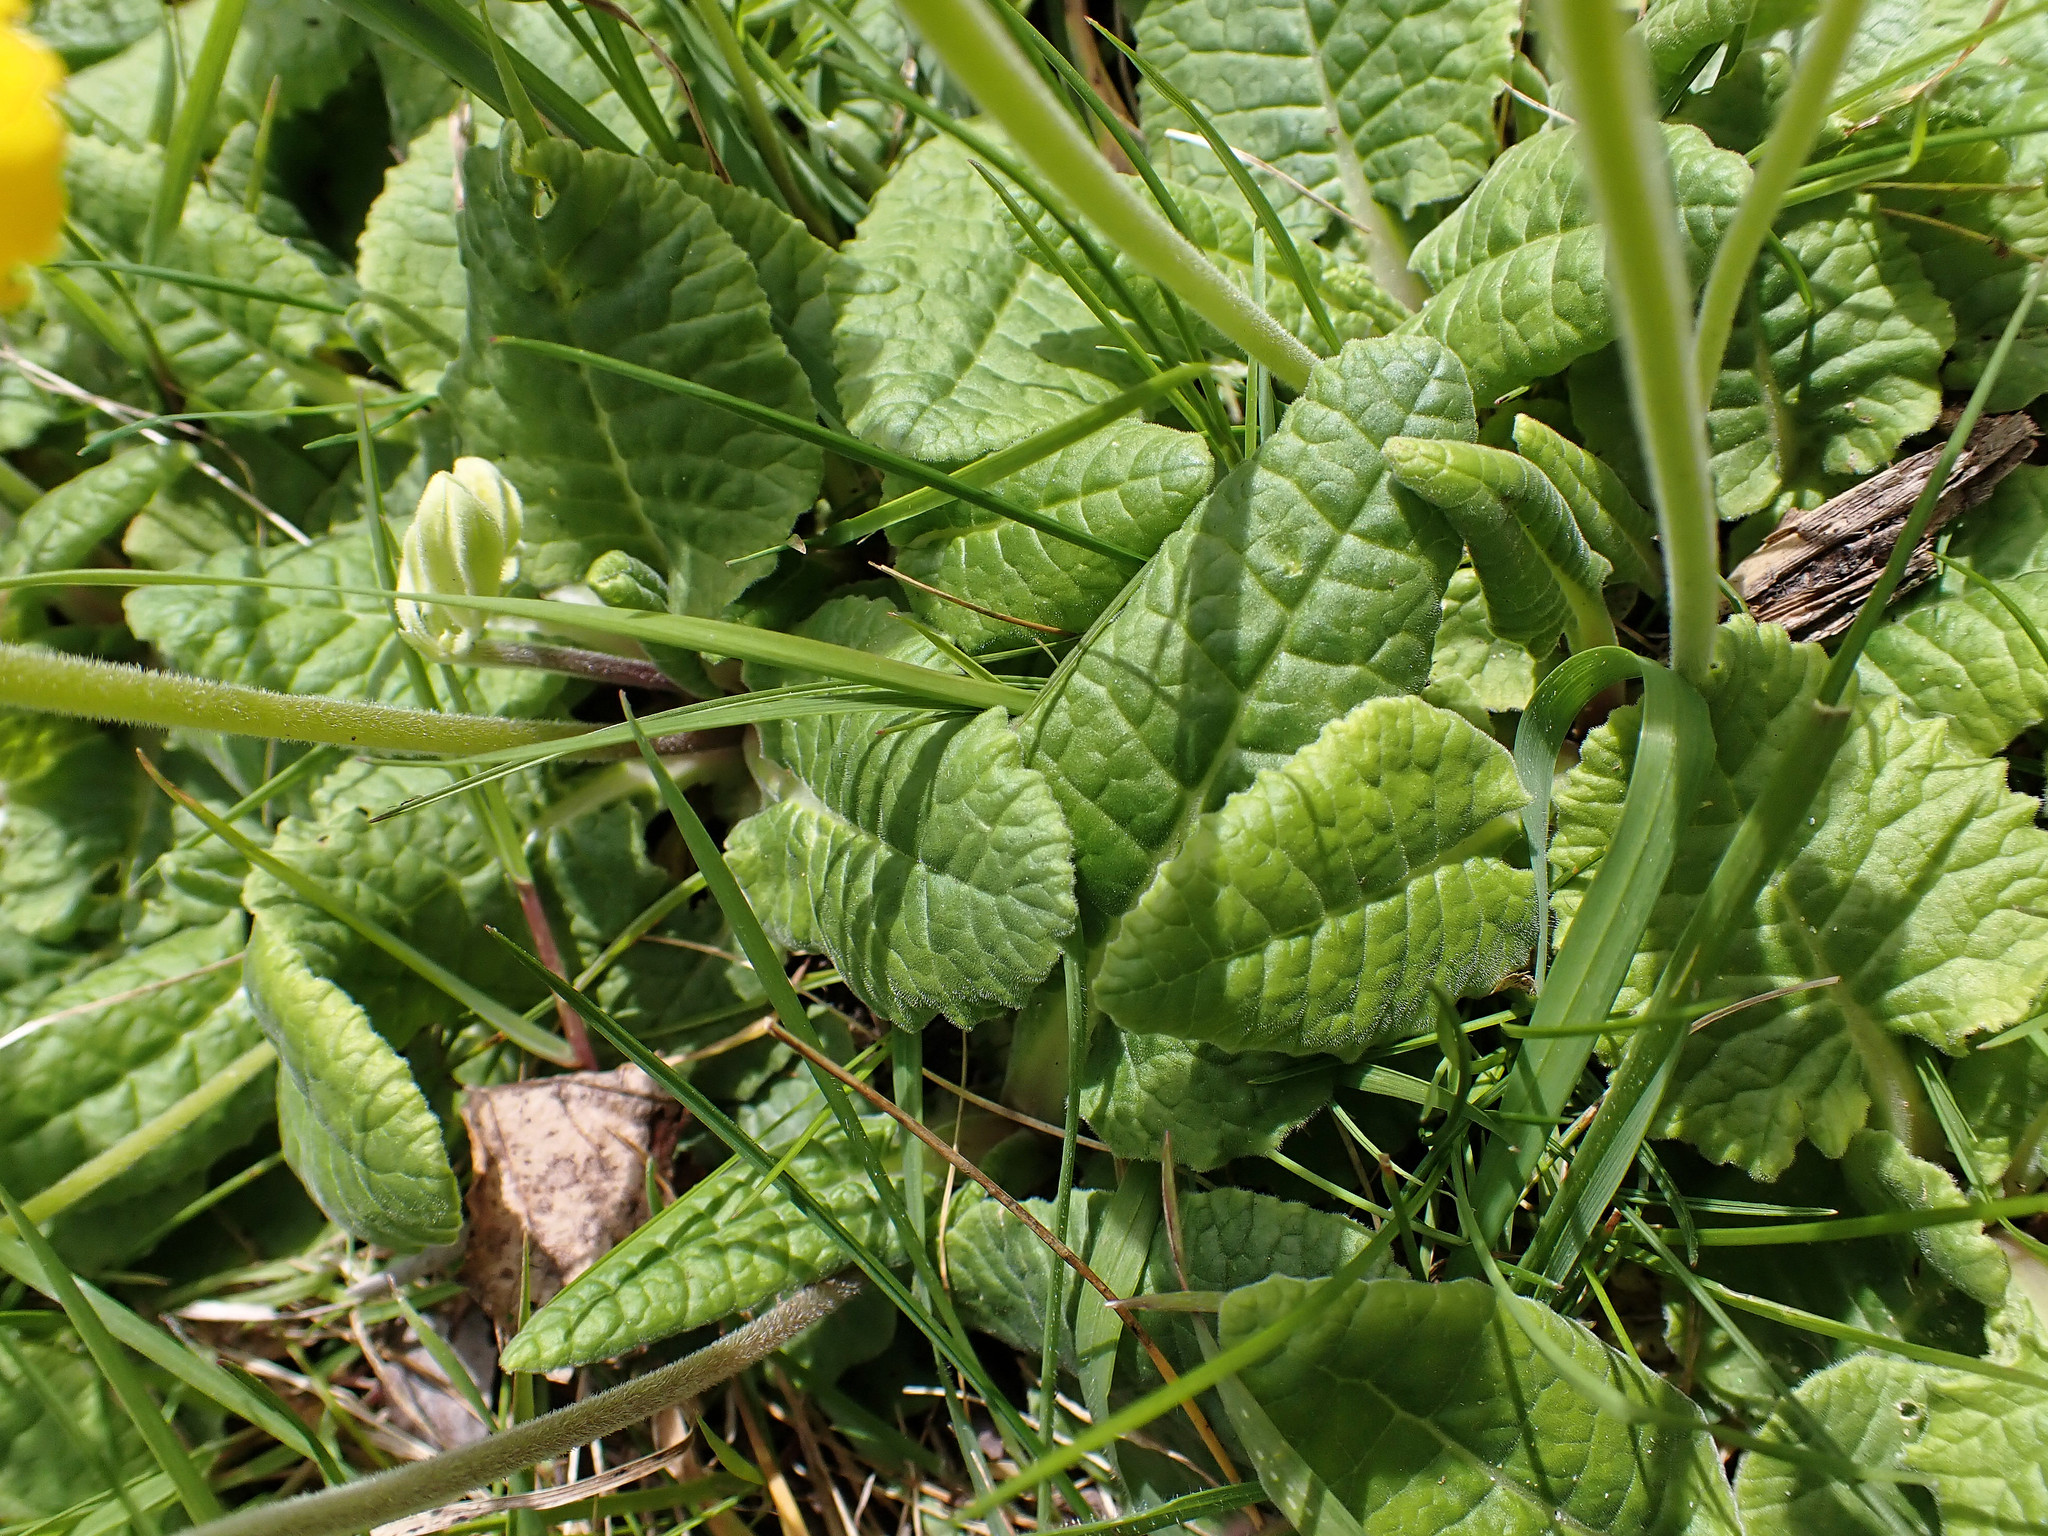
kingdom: Plantae
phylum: Tracheophyta
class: Magnoliopsida
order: Ericales
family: Primulaceae
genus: Primula
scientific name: Primula veris
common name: Cowslip
